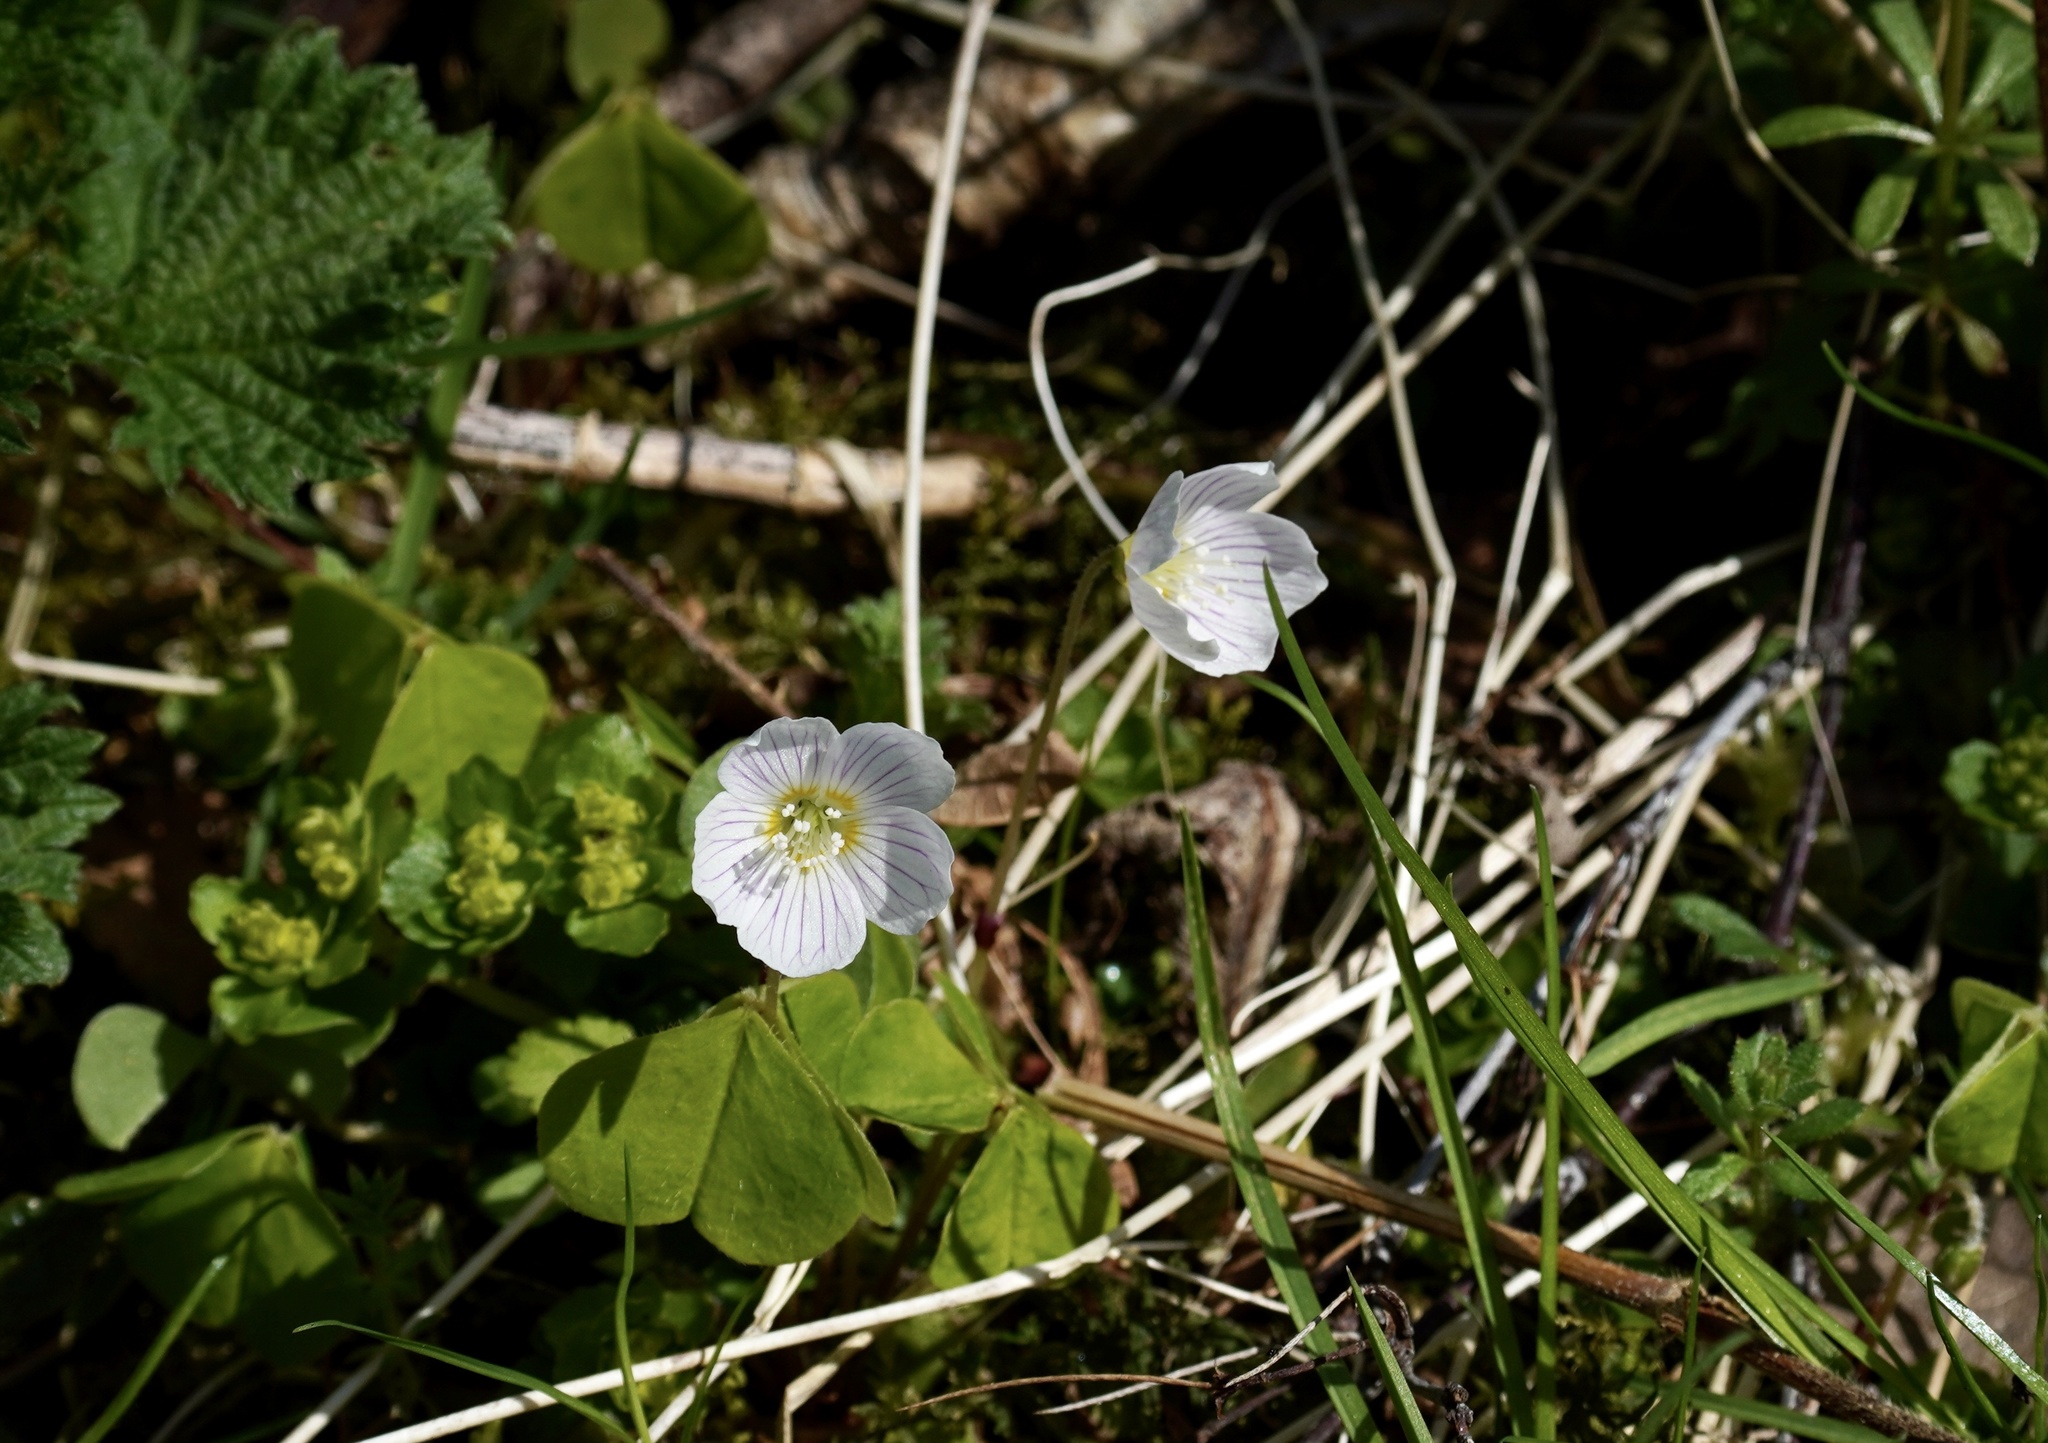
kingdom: Plantae
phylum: Tracheophyta
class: Magnoliopsida
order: Oxalidales
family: Oxalidaceae
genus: Oxalis
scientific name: Oxalis acetosella
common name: Wood-sorrel
